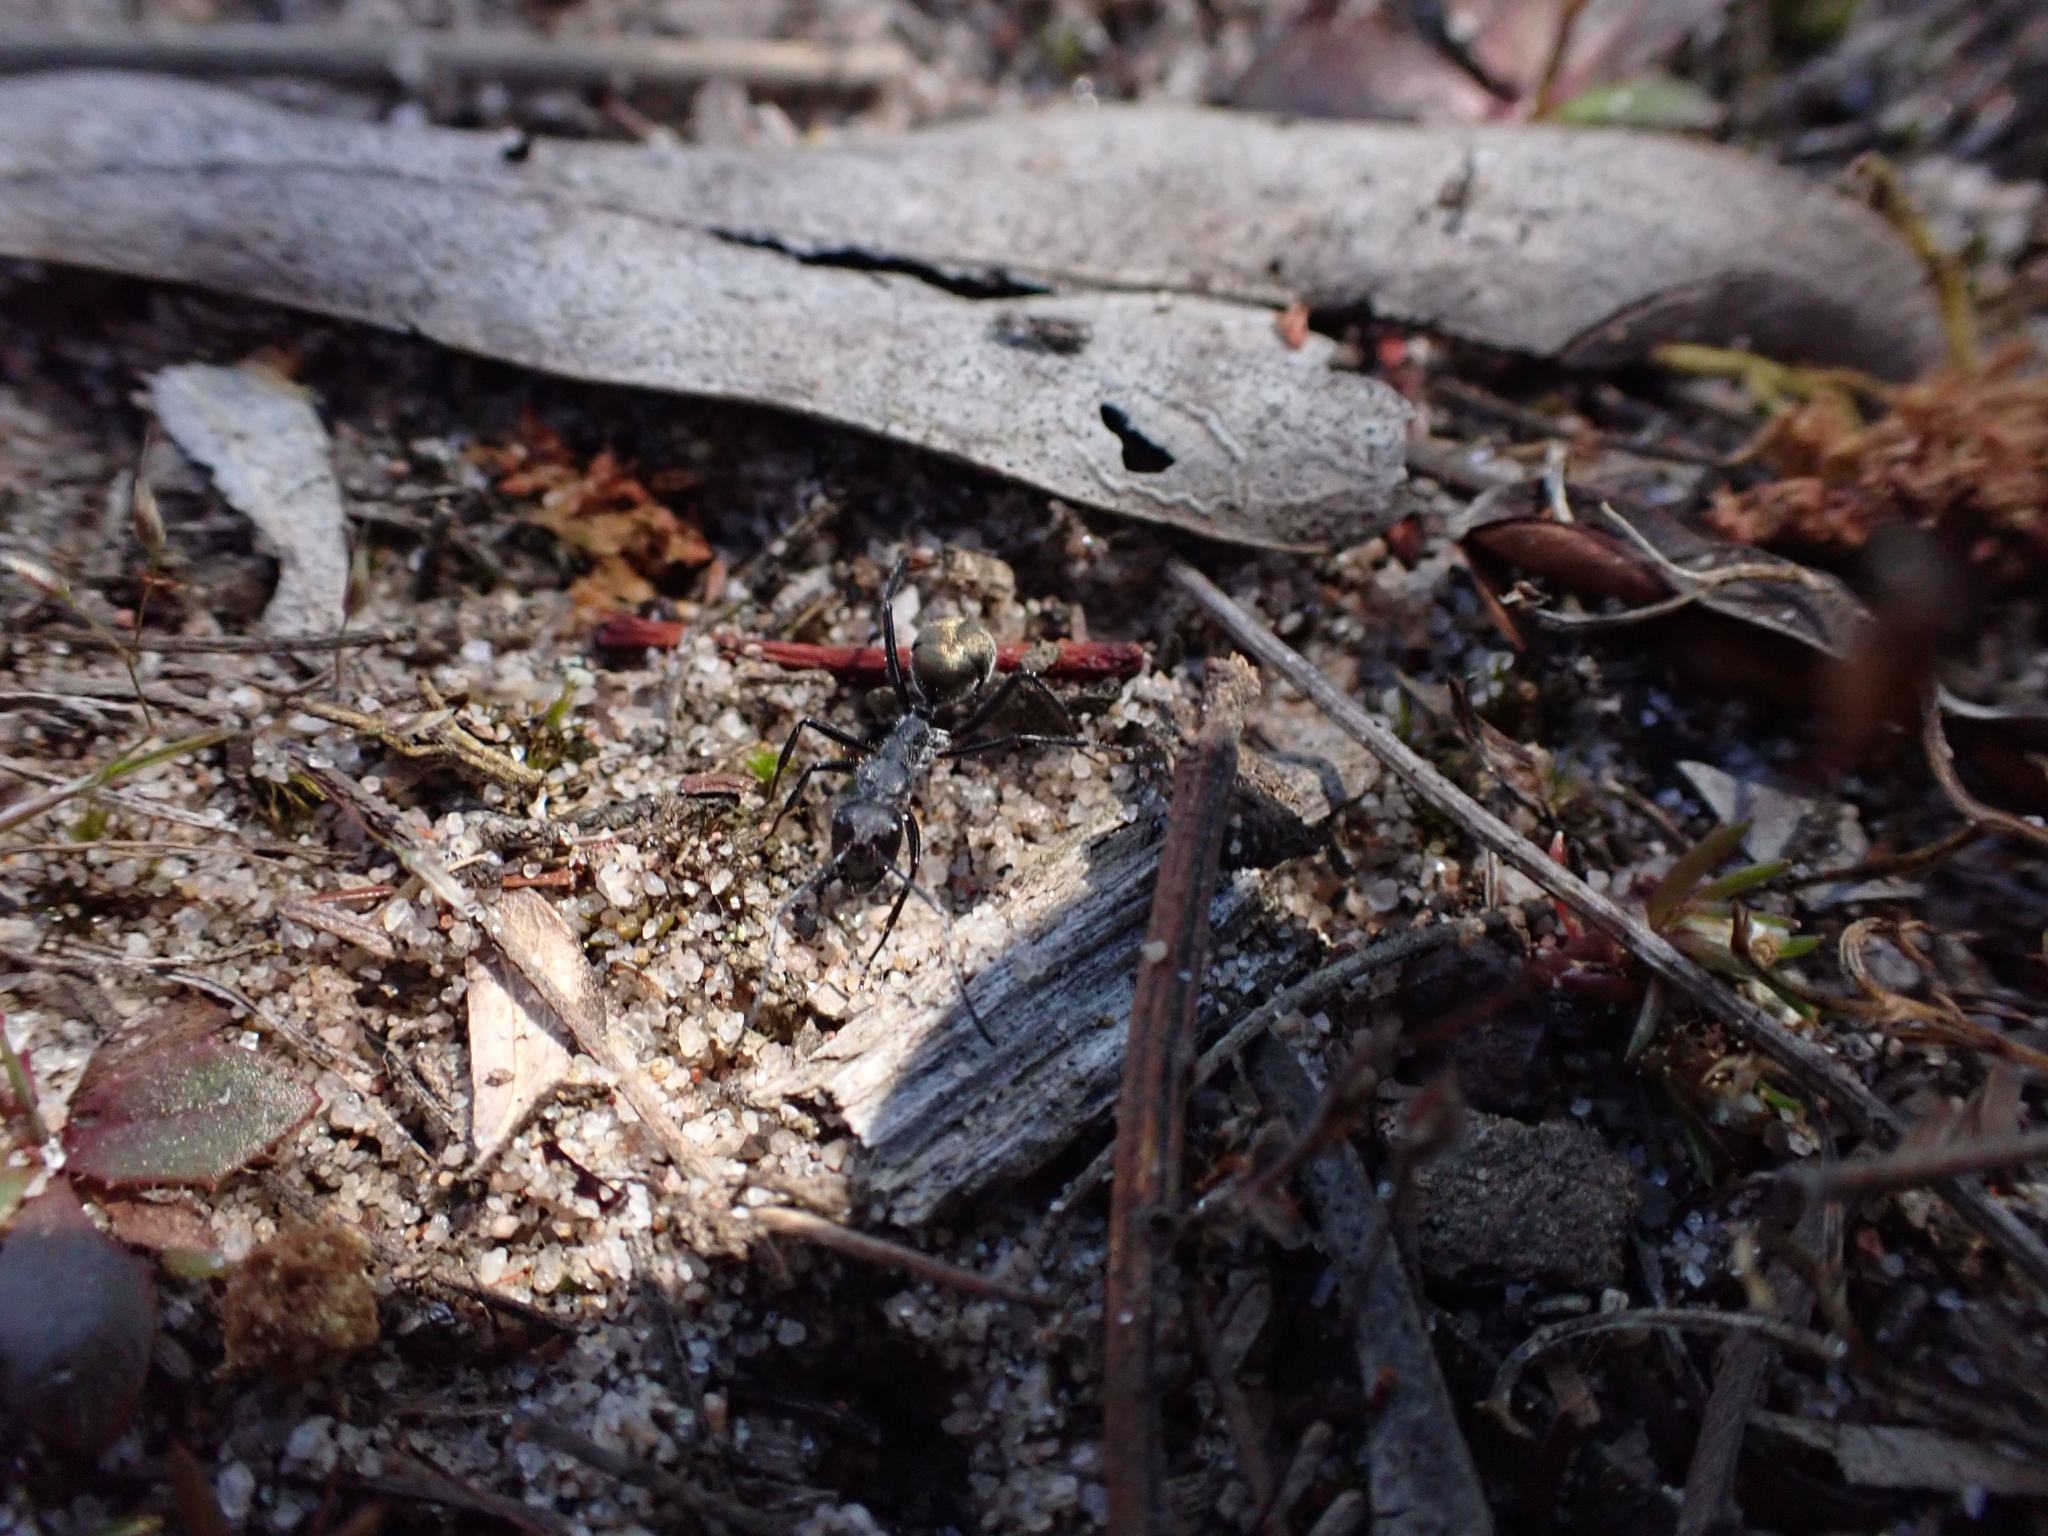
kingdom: Animalia
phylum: Arthropoda
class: Insecta
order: Hymenoptera
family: Formicidae
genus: Camponotus
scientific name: Camponotus suffusus
